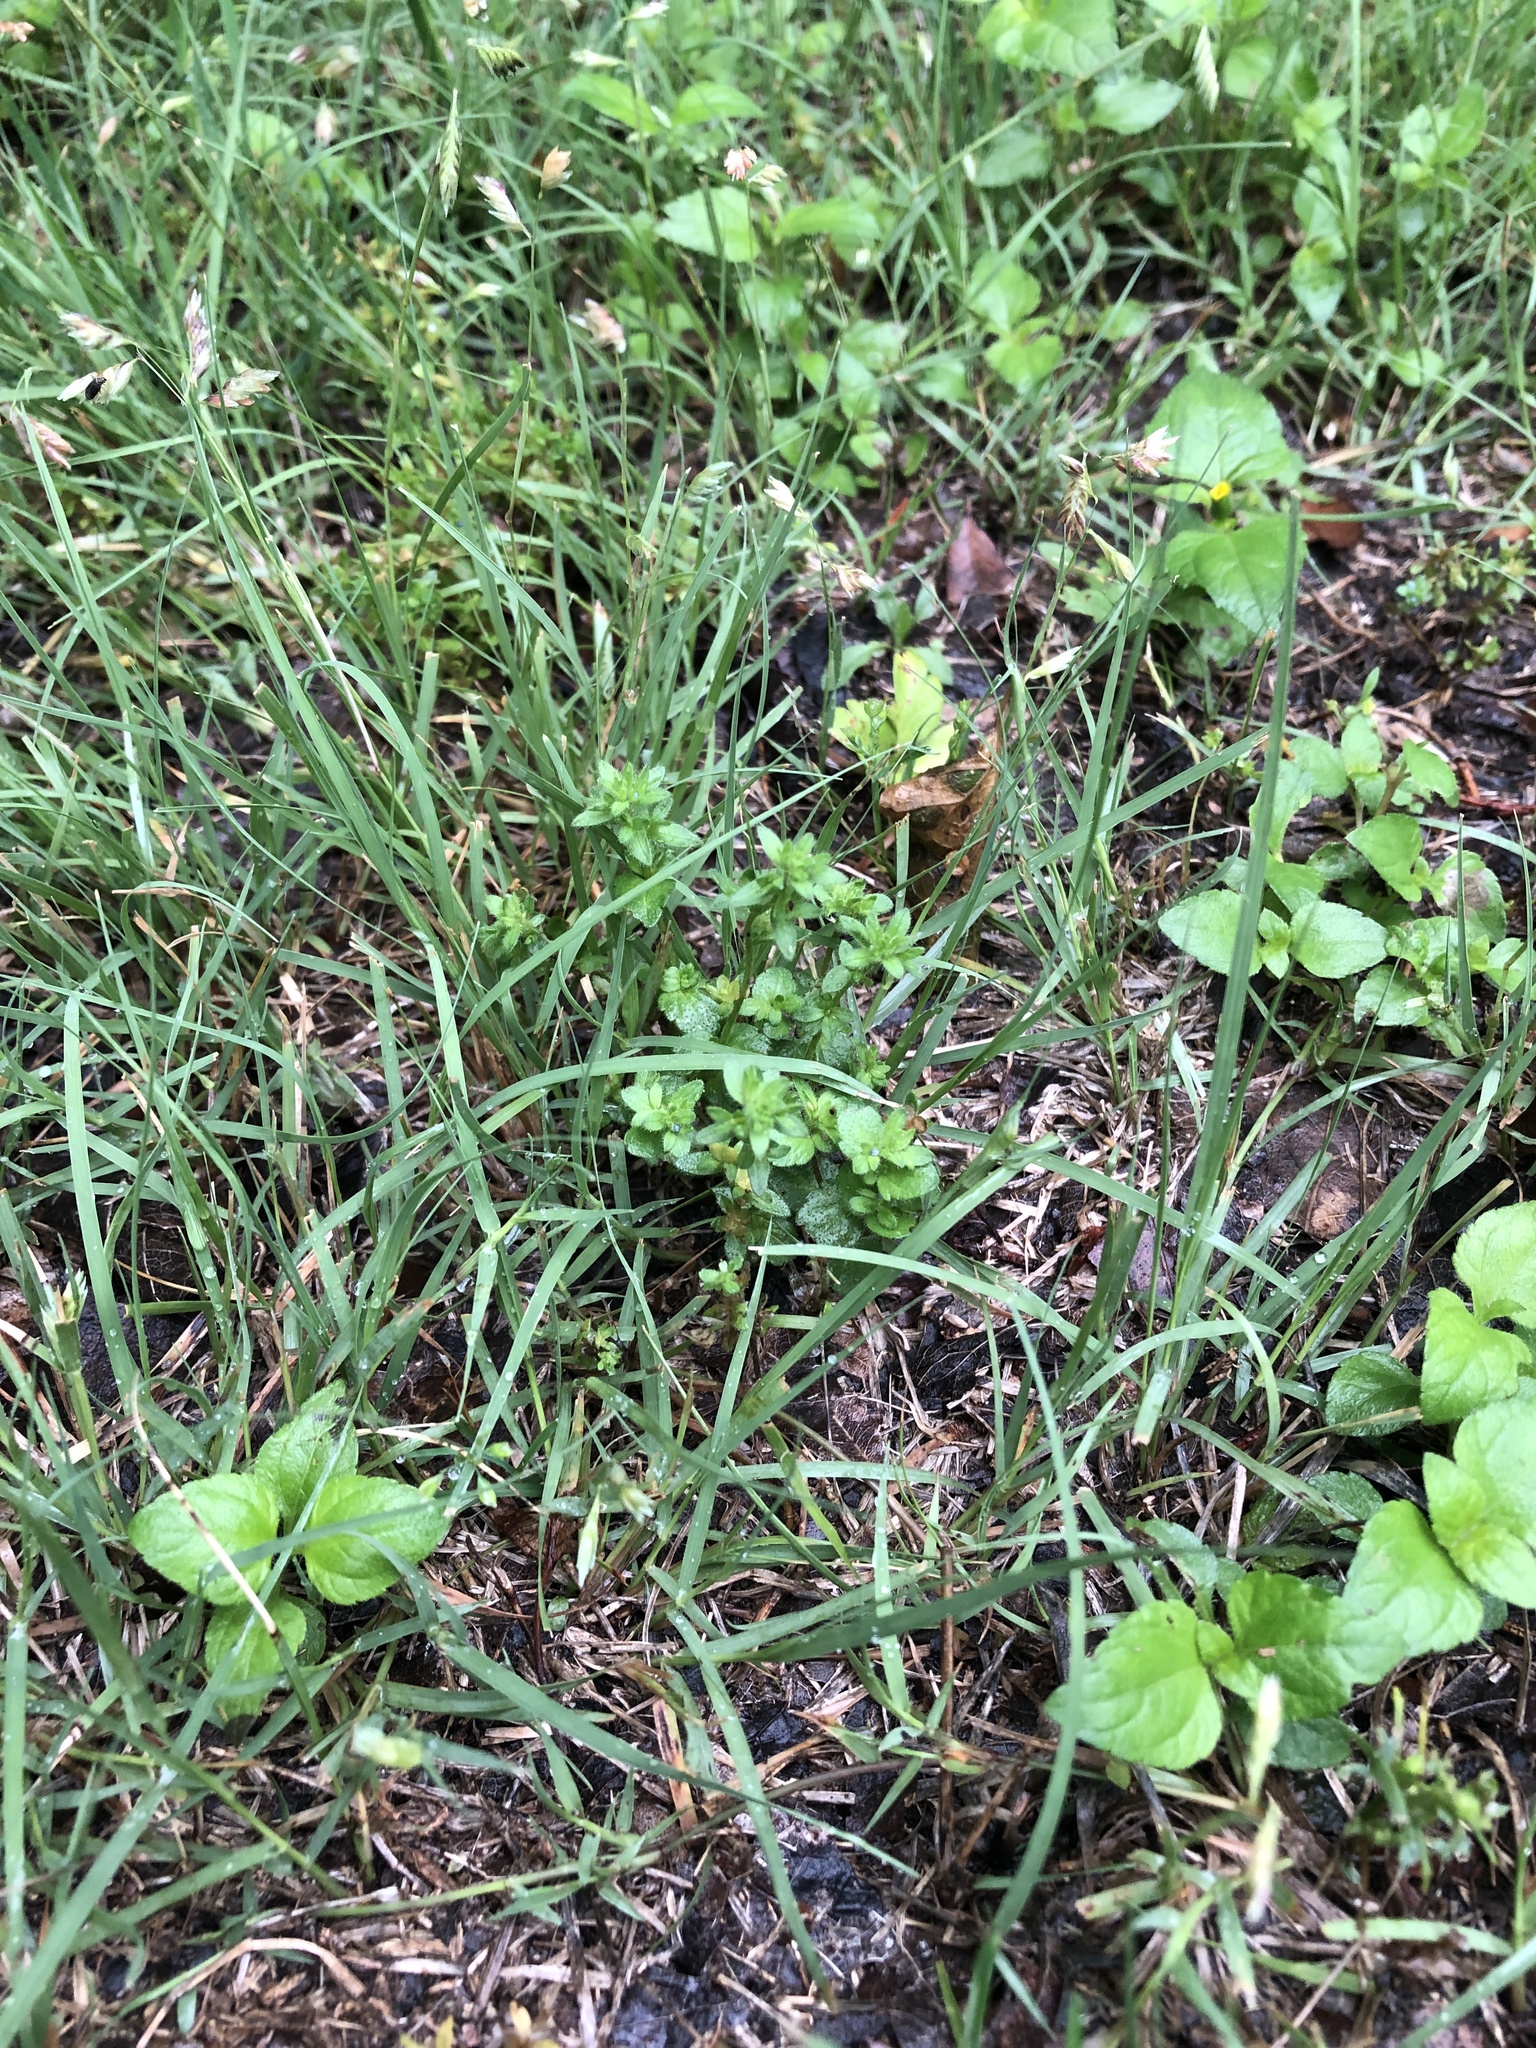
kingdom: Plantae
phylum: Tracheophyta
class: Magnoliopsida
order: Lamiales
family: Plantaginaceae
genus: Veronica
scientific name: Veronica arvensis
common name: Corn speedwell
